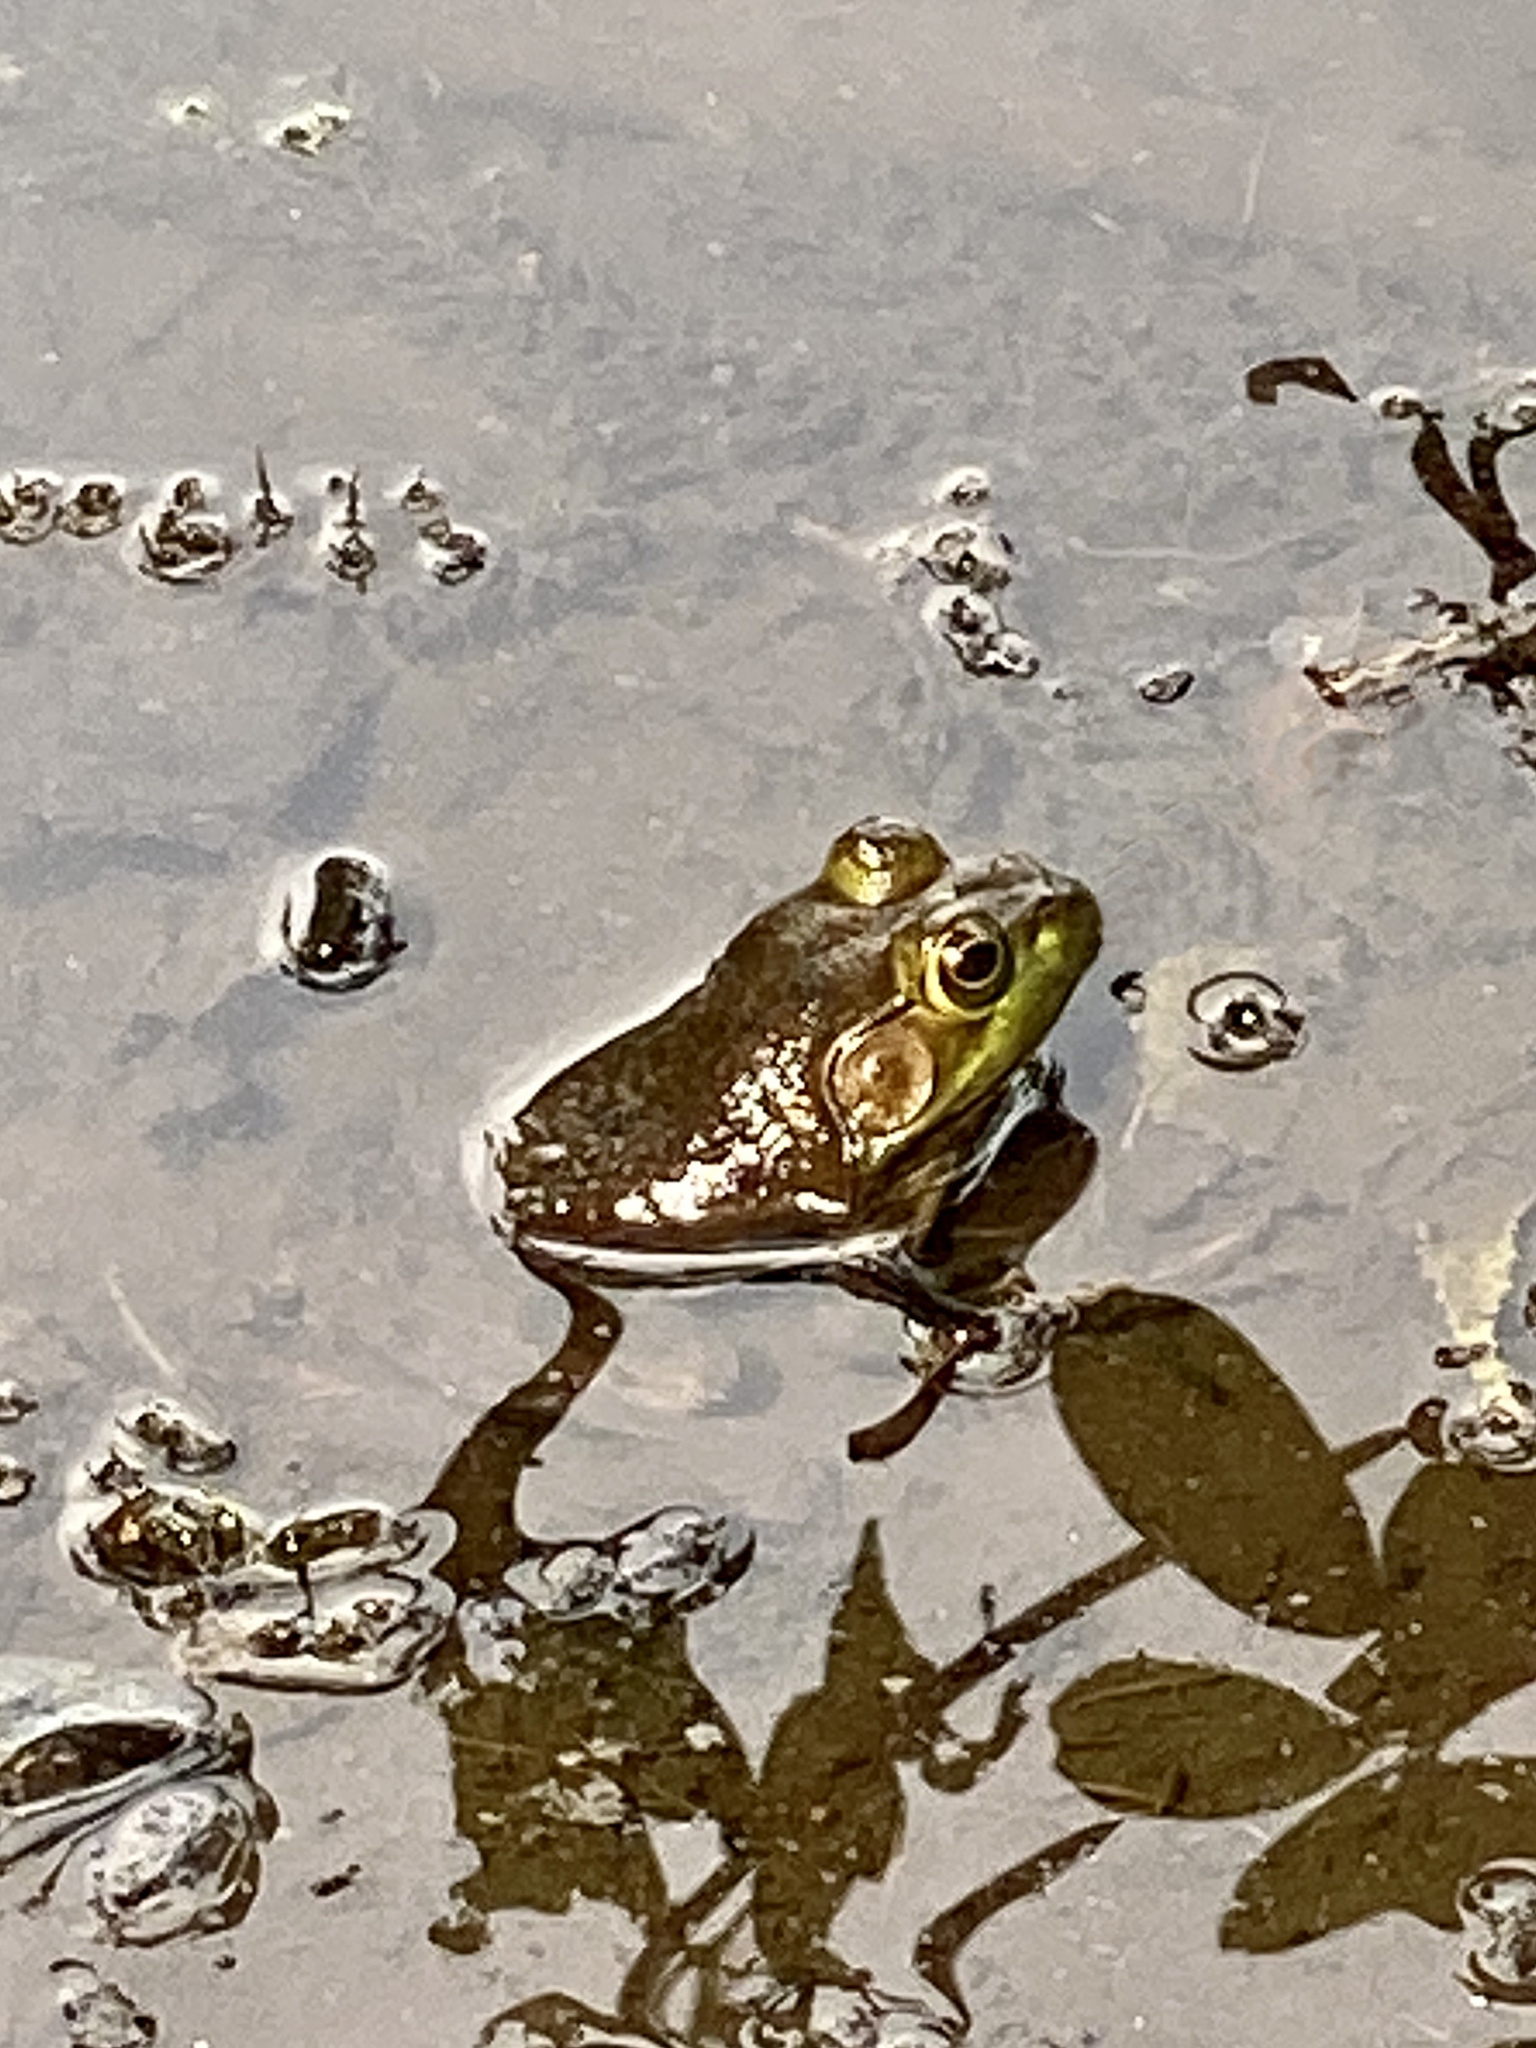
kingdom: Animalia
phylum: Chordata
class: Amphibia
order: Anura
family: Ranidae
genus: Lithobates
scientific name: Lithobates catesbeianus
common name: American bullfrog
